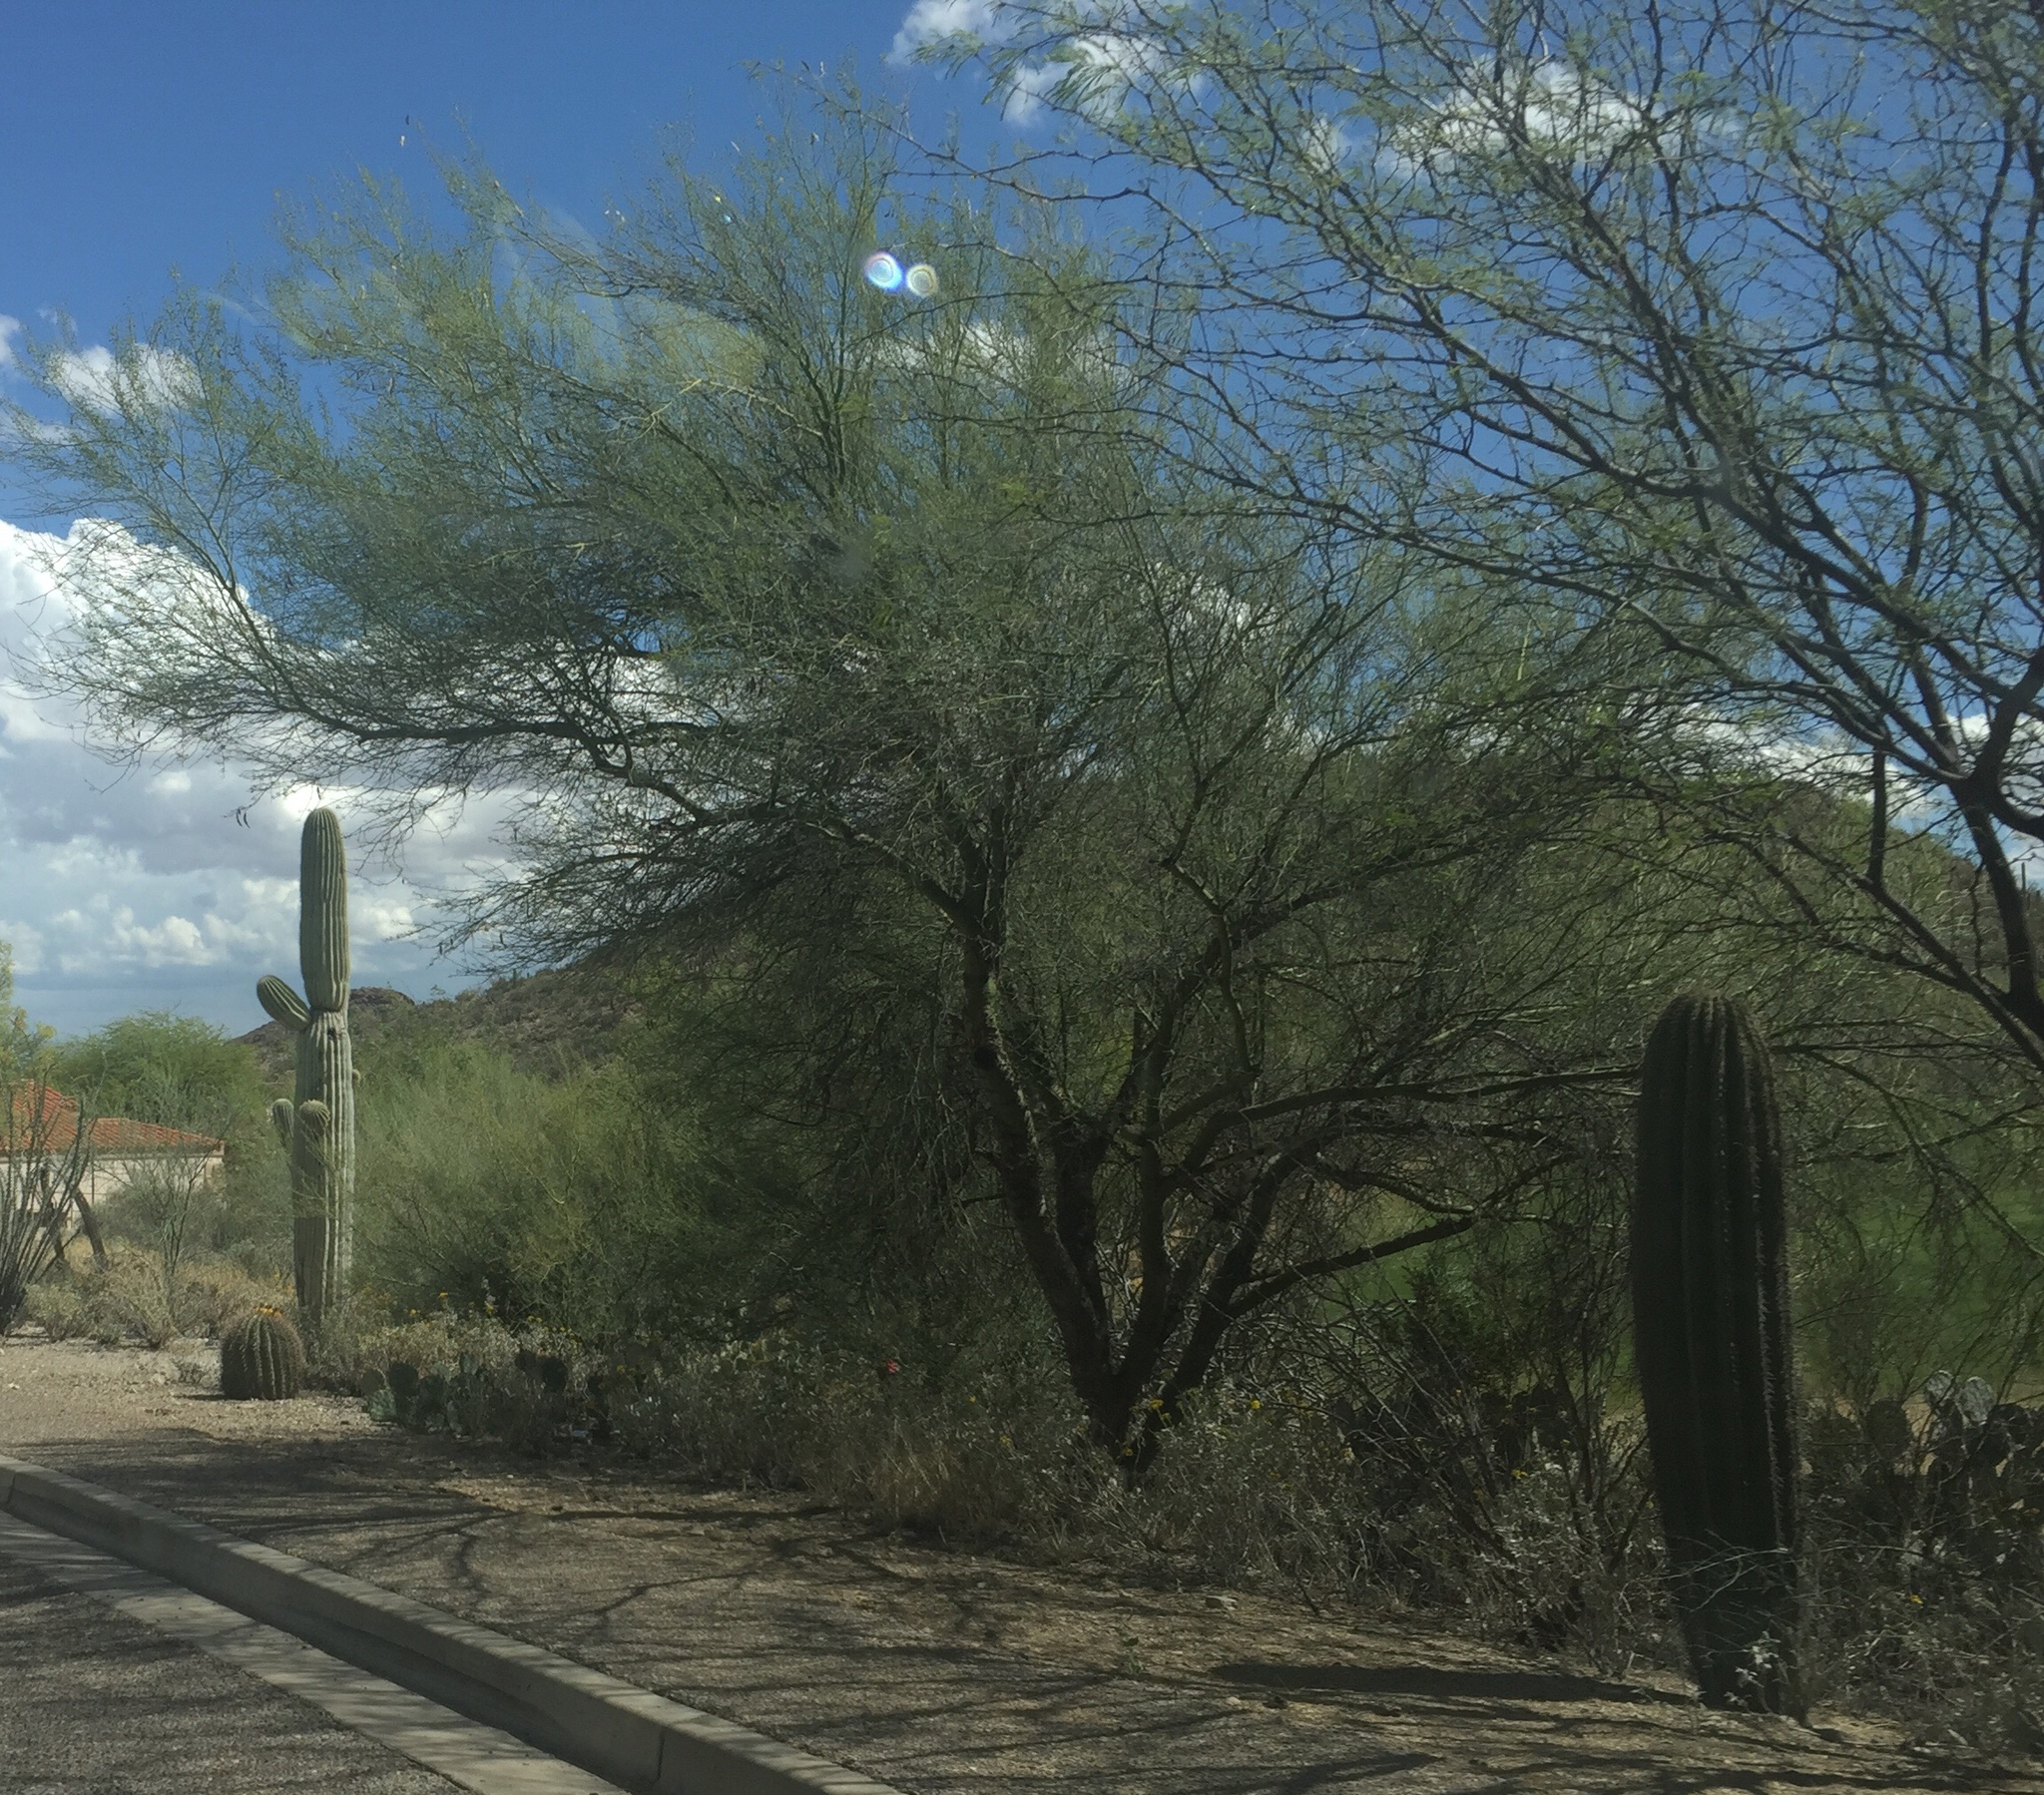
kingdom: Plantae
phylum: Tracheophyta
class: Magnoliopsida
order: Caryophyllales
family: Cactaceae
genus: Carnegiea
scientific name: Carnegiea gigantea
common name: Saguaro
